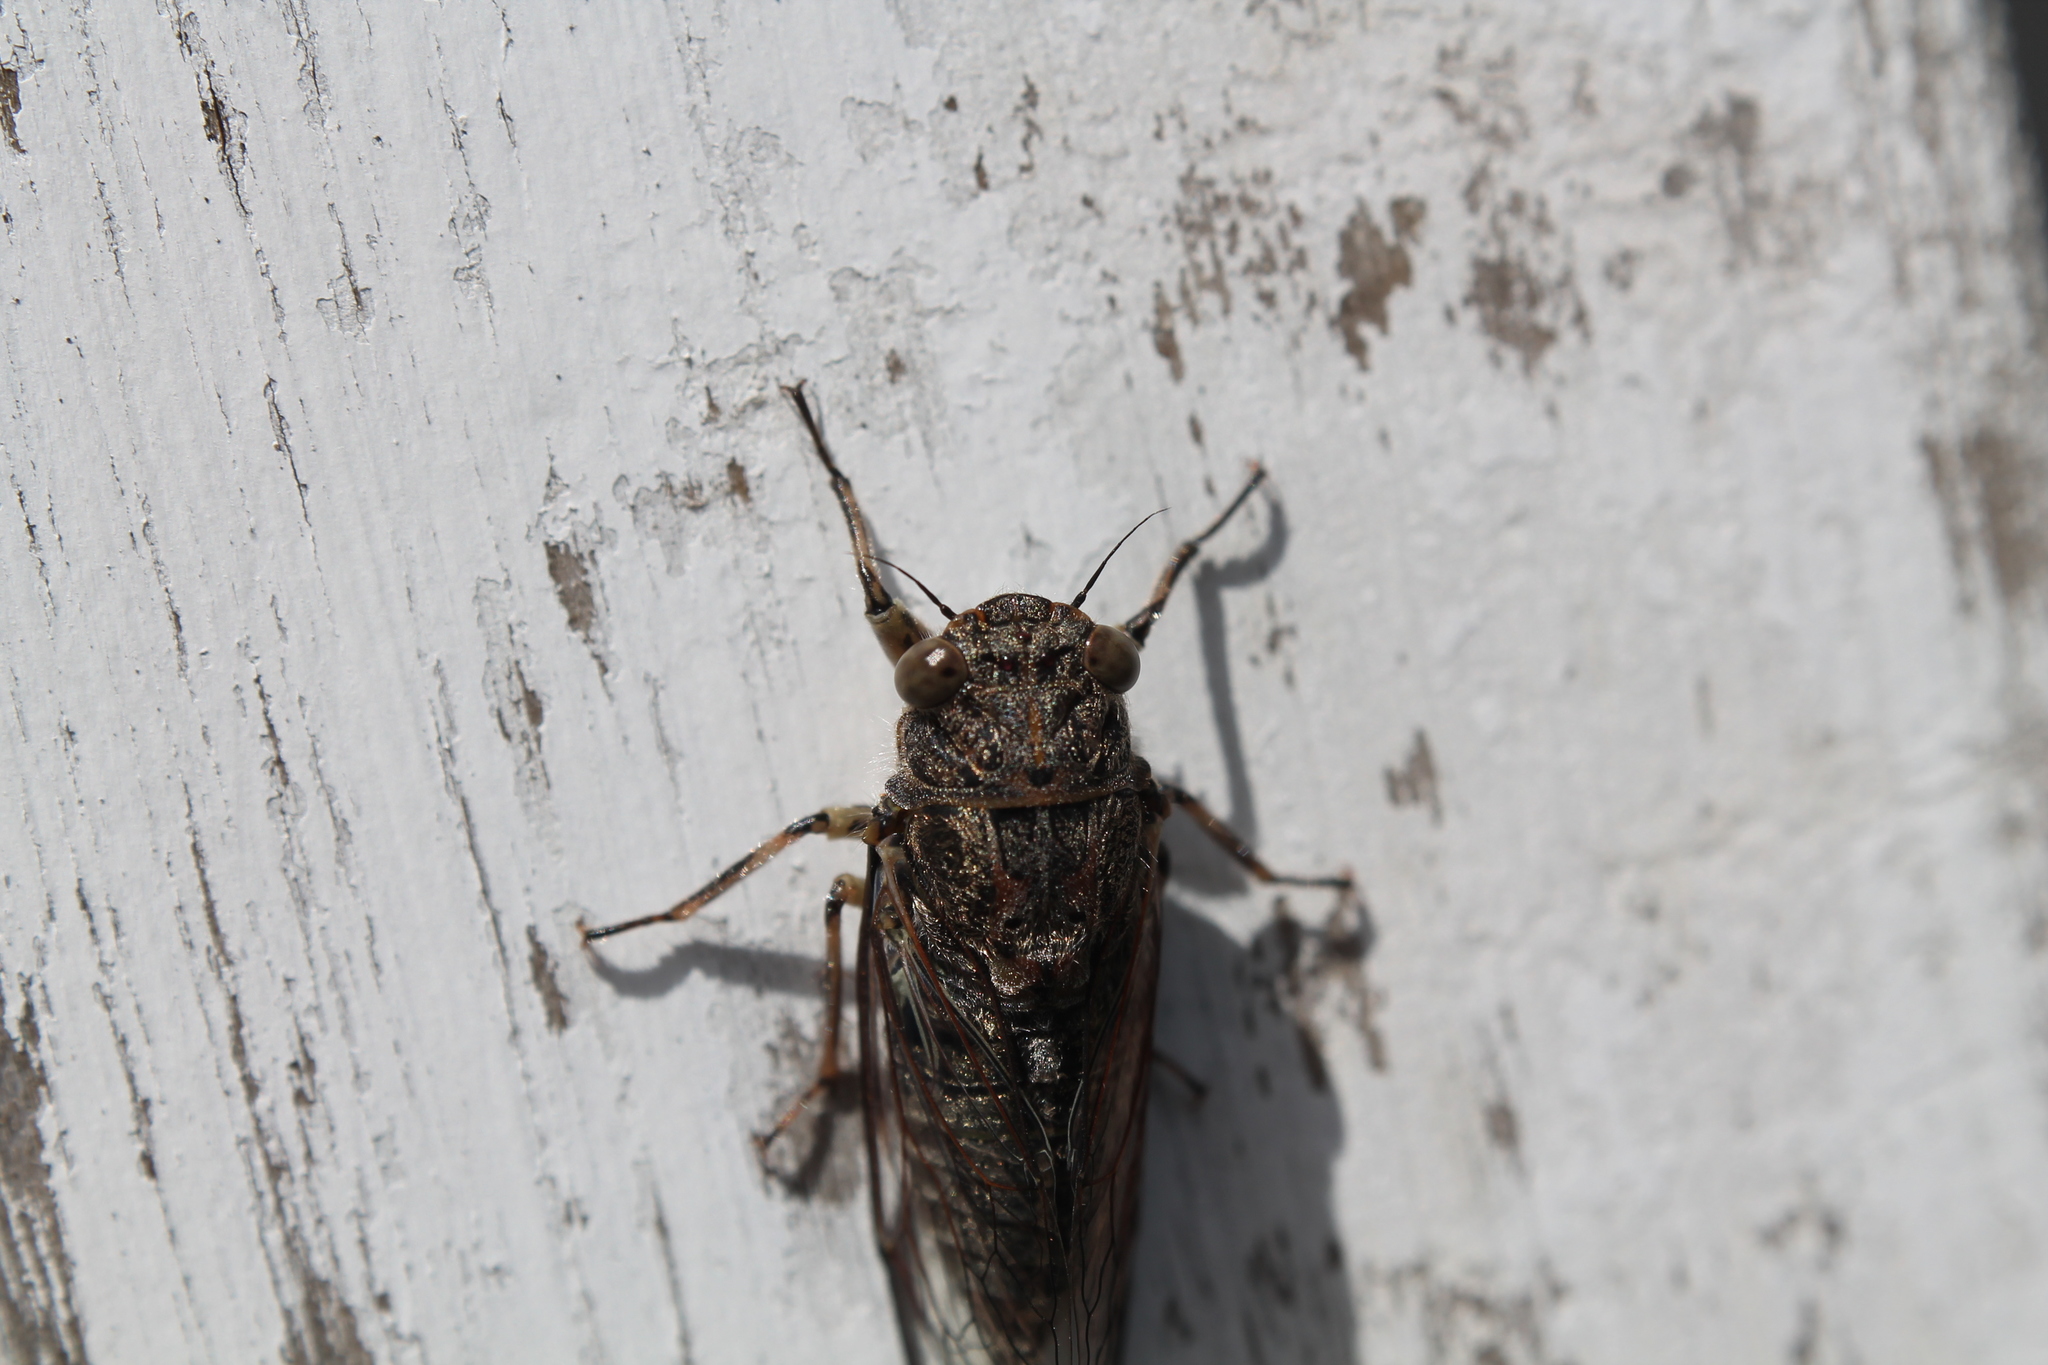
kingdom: Animalia
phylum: Arthropoda
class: Insecta
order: Hemiptera
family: Cicadidae
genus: Notopsalta
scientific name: Notopsalta sericea
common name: Clay bank cicada
